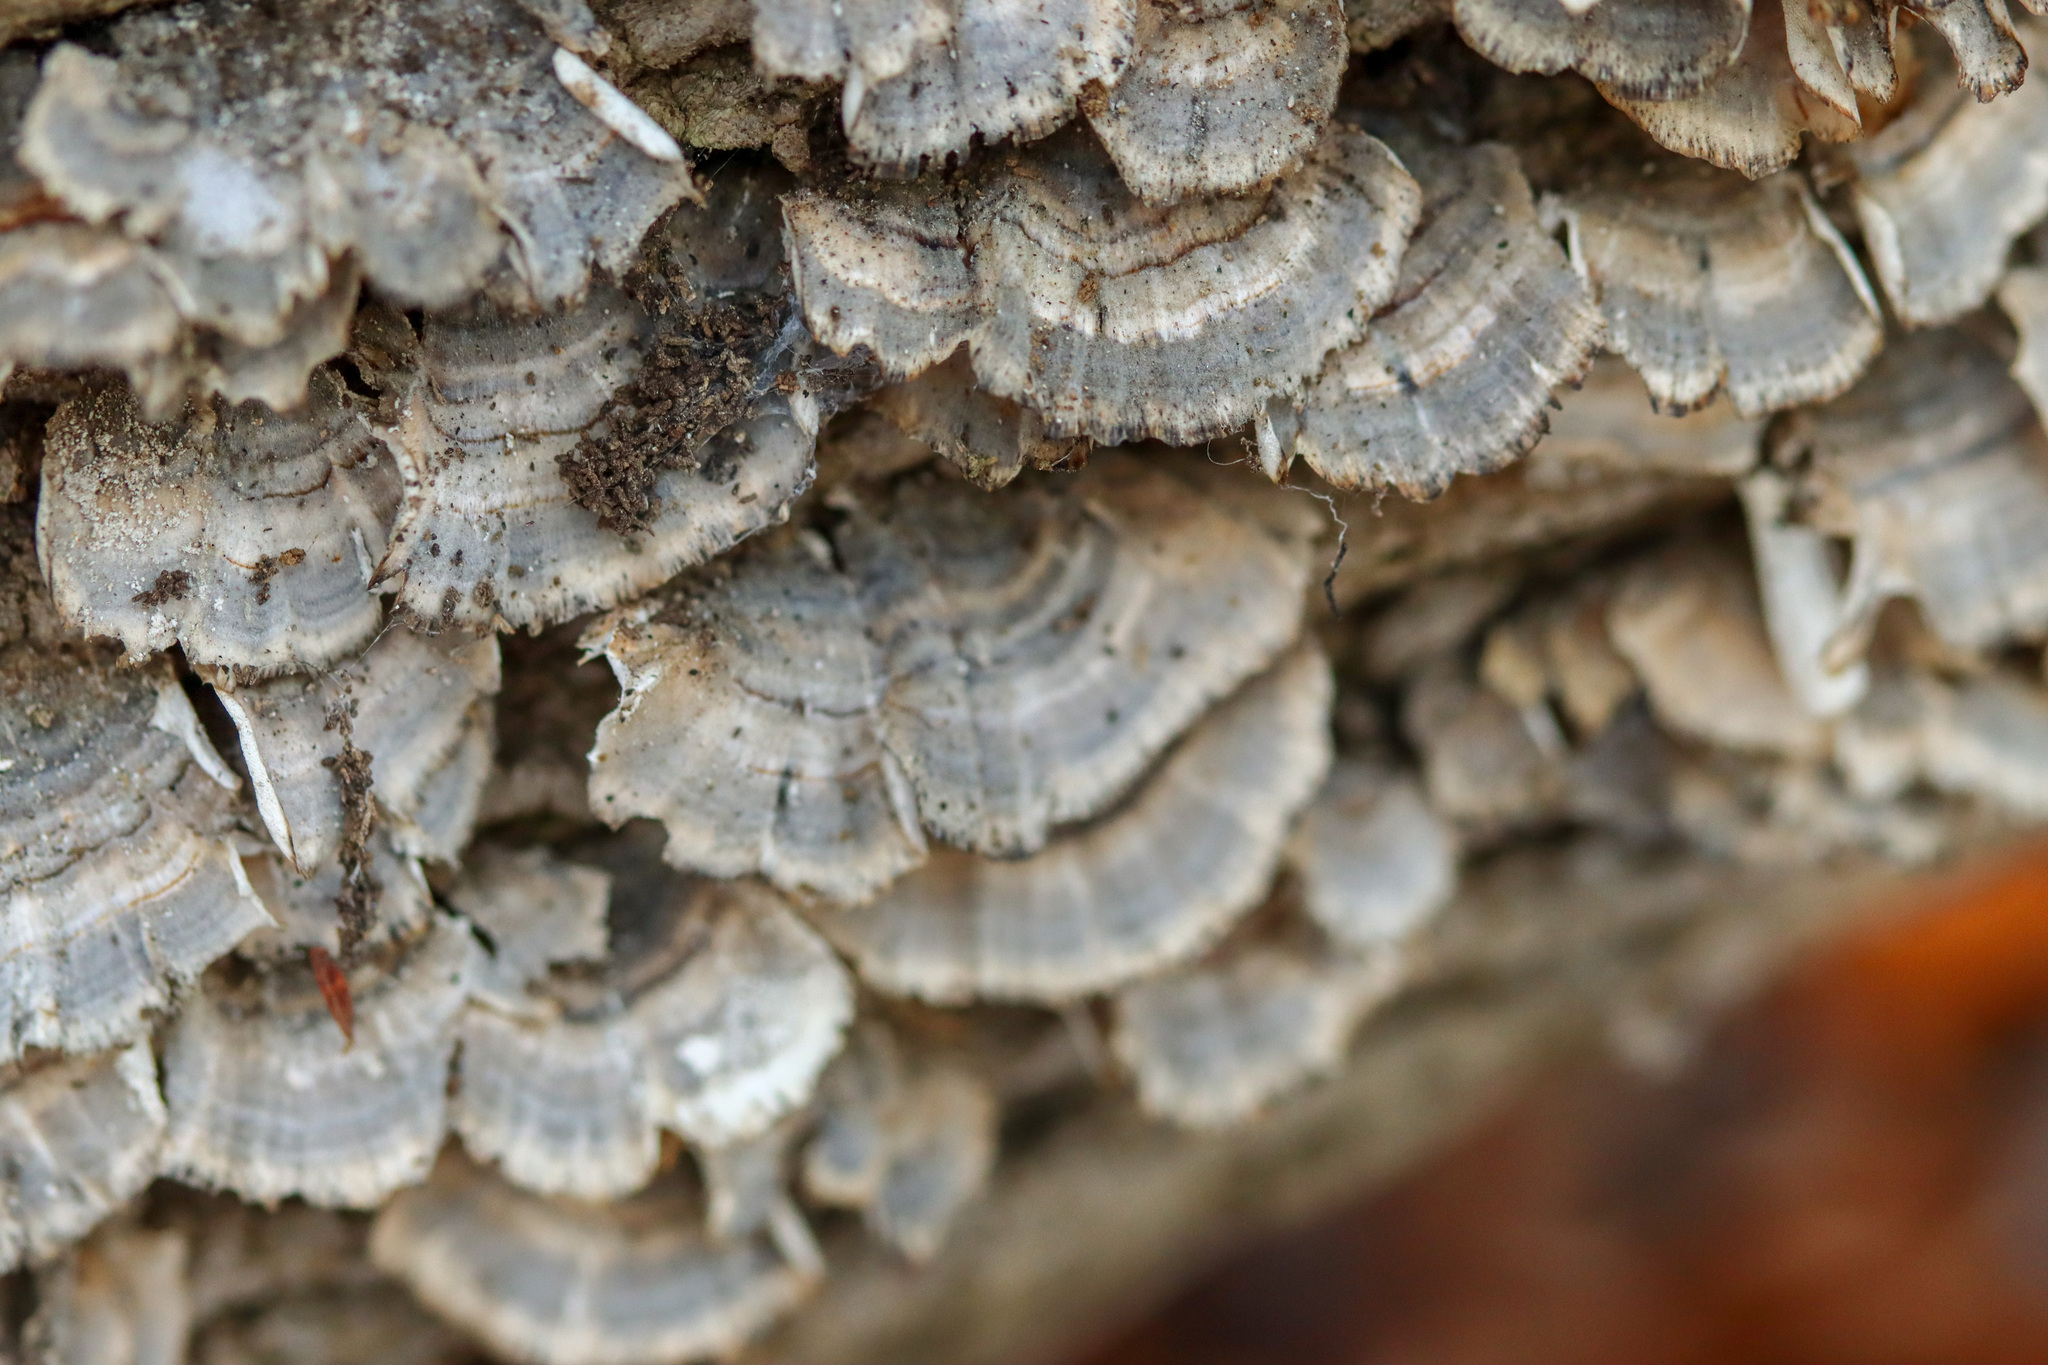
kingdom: Fungi
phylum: Basidiomycota
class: Agaricomycetes
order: Polyporales
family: Polyporaceae
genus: Trametes
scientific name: Trametes versicolor
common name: Turkeytail
